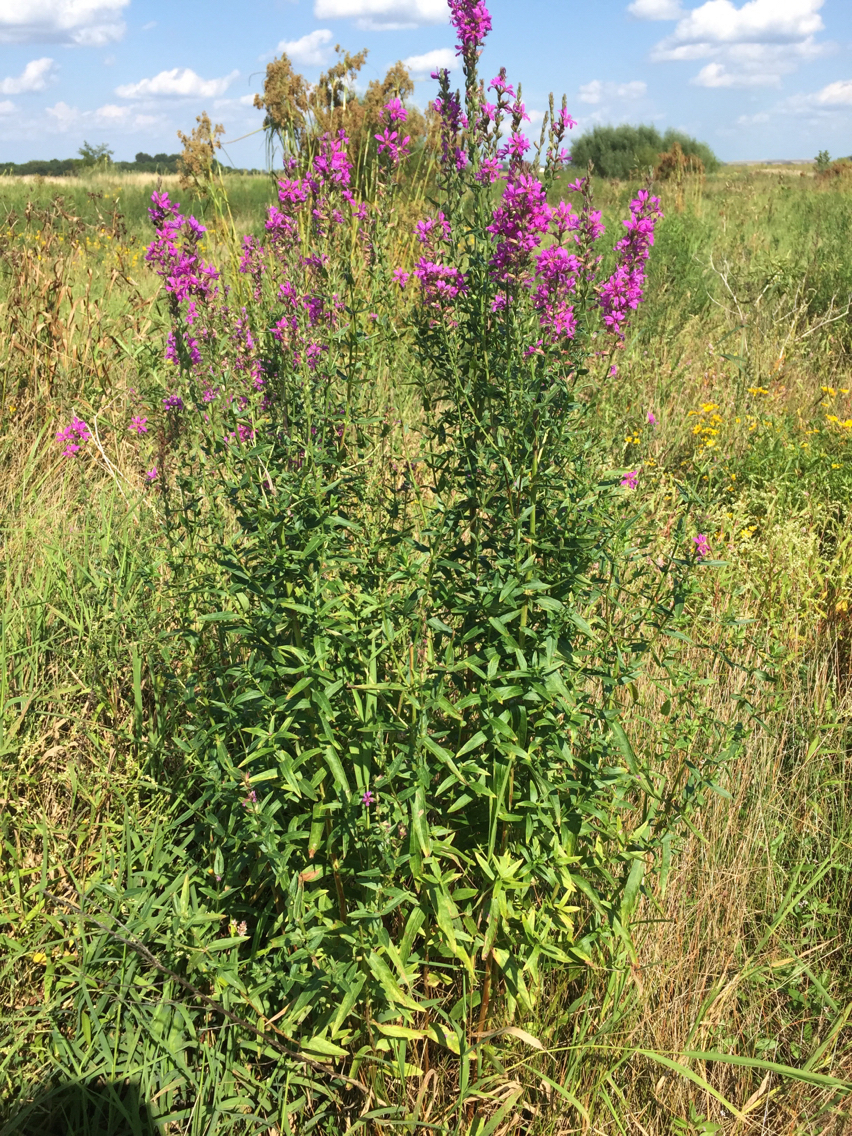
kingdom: Plantae
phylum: Tracheophyta
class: Magnoliopsida
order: Myrtales
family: Lythraceae
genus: Lythrum
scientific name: Lythrum salicaria
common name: Purple loosestrife
